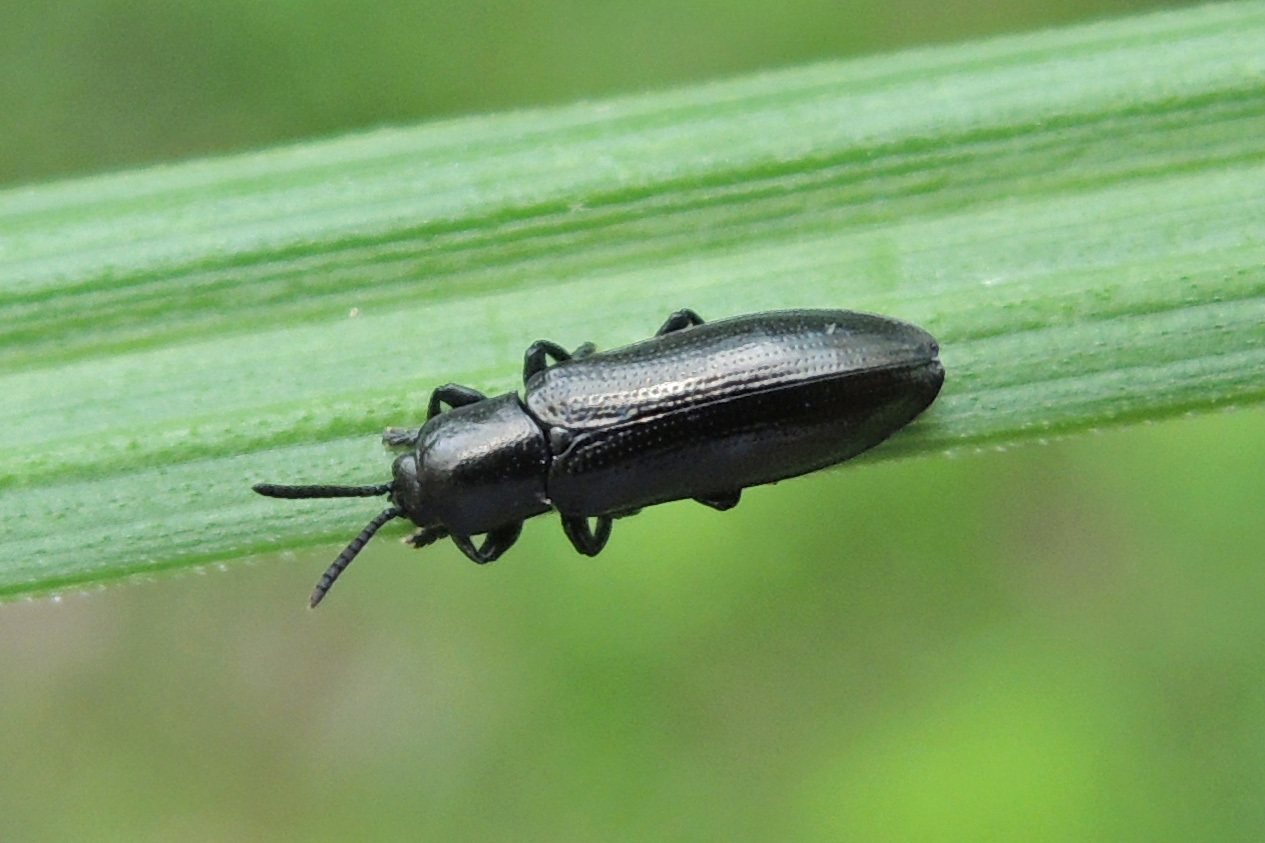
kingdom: Animalia
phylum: Arthropoda
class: Insecta
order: Coleoptera
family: Chrysomelidae
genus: Stenispa
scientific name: Stenispa metallica
